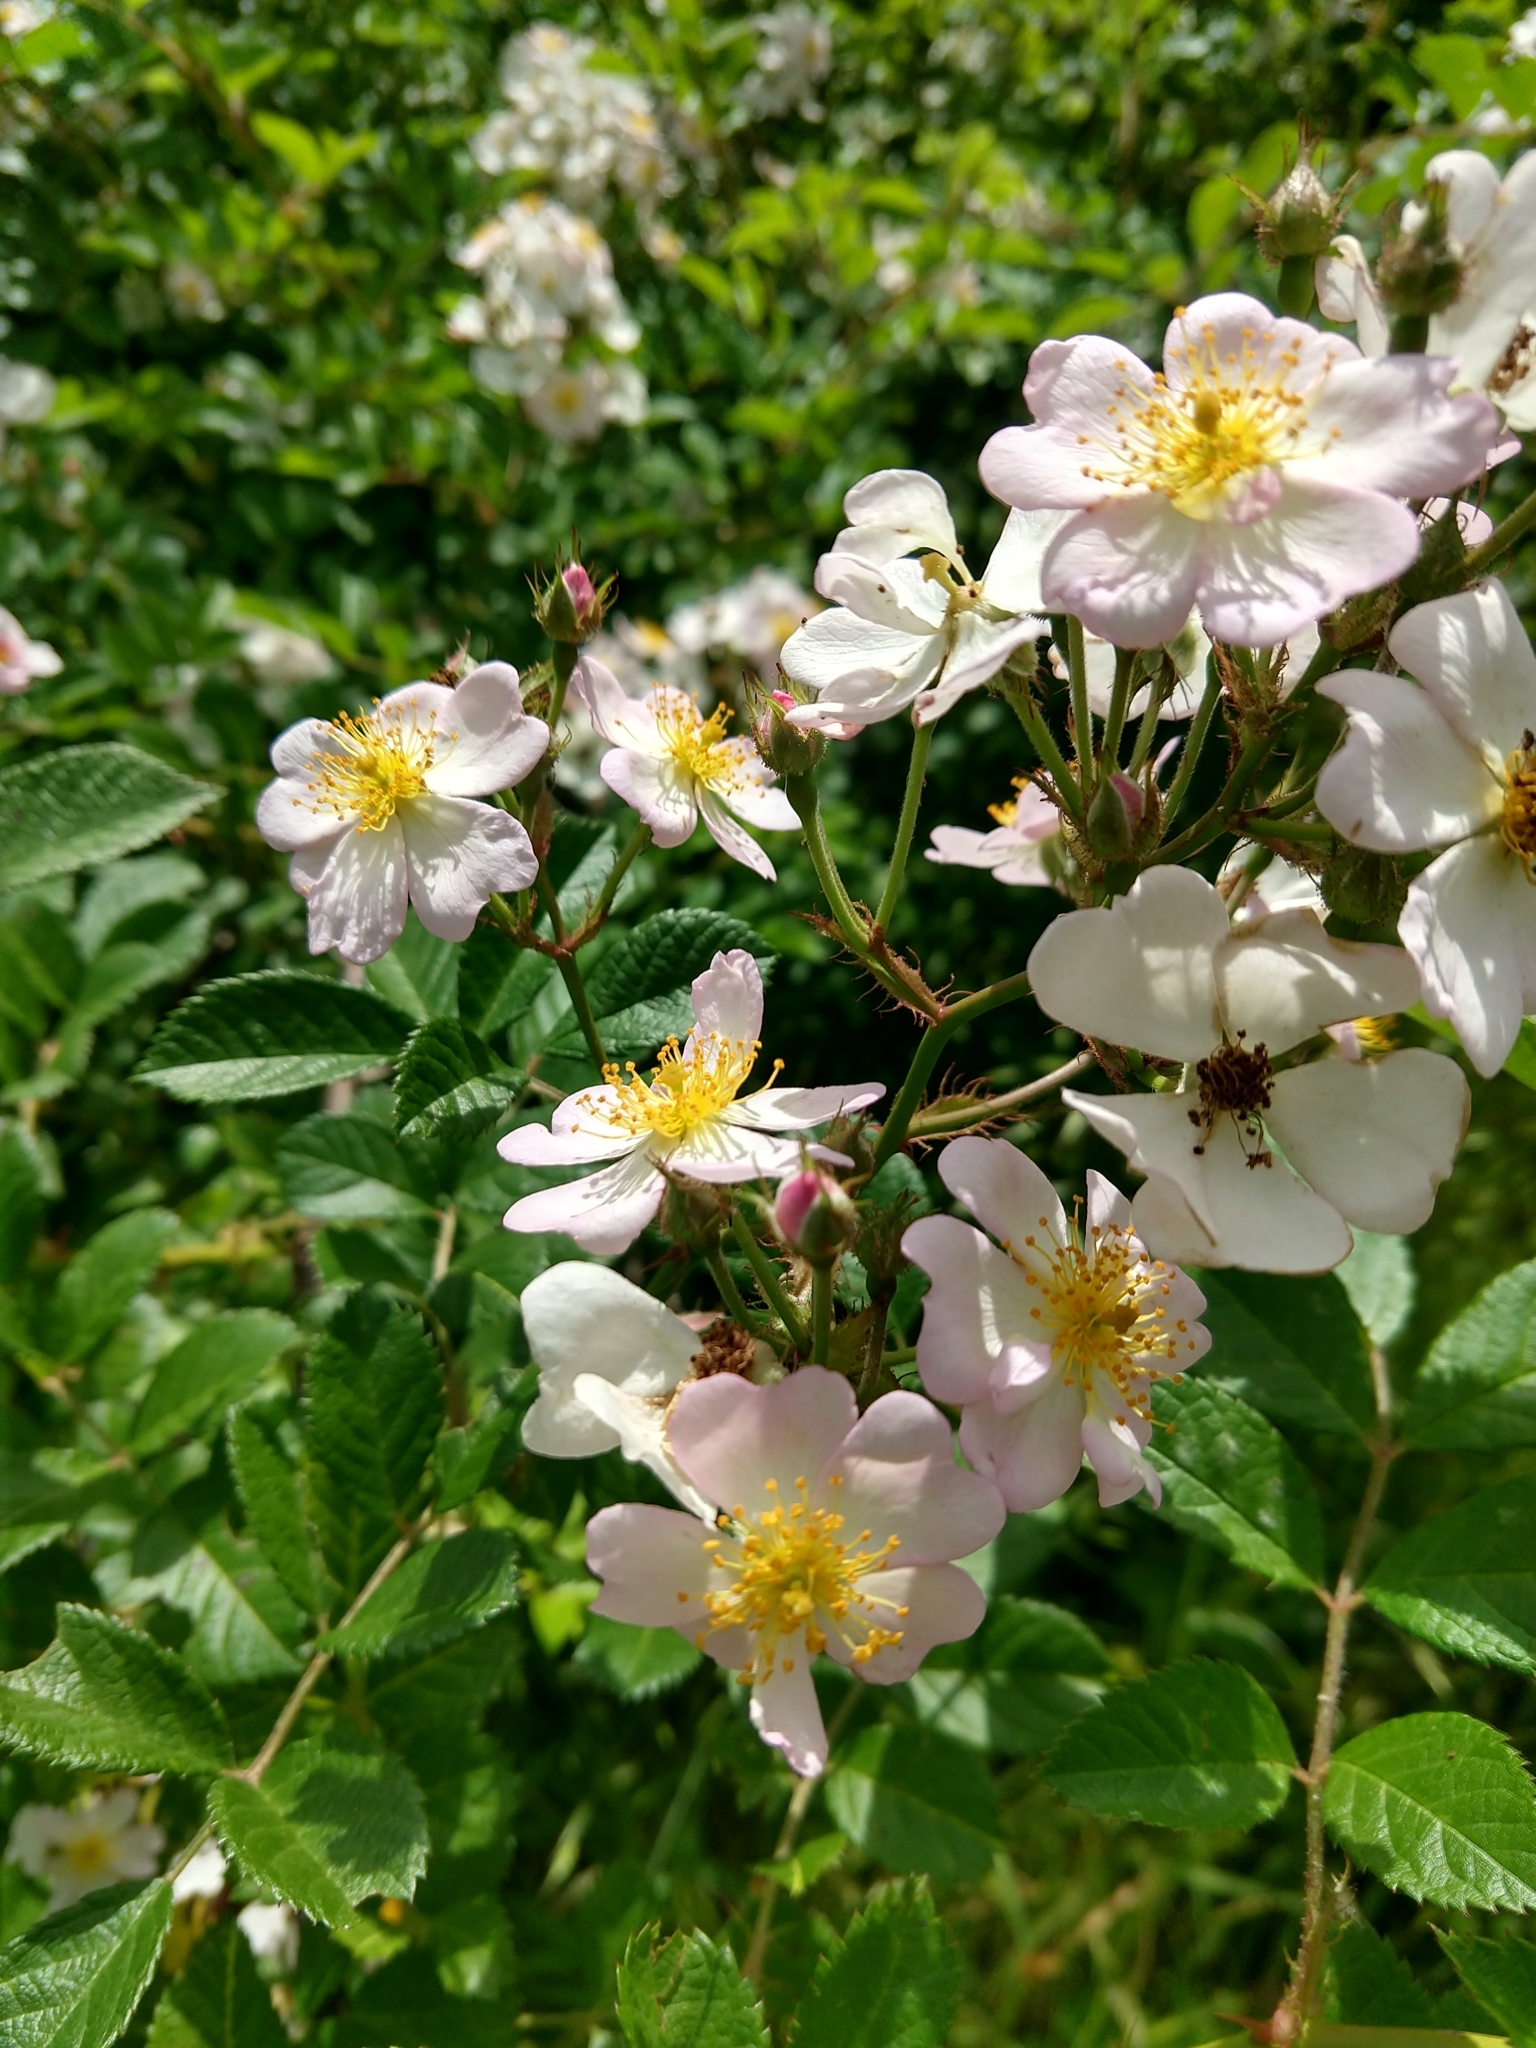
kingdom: Plantae
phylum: Tracheophyta
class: Magnoliopsida
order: Rosales
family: Rosaceae
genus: Rosa
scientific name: Rosa multiflora
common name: Multiflora rose
